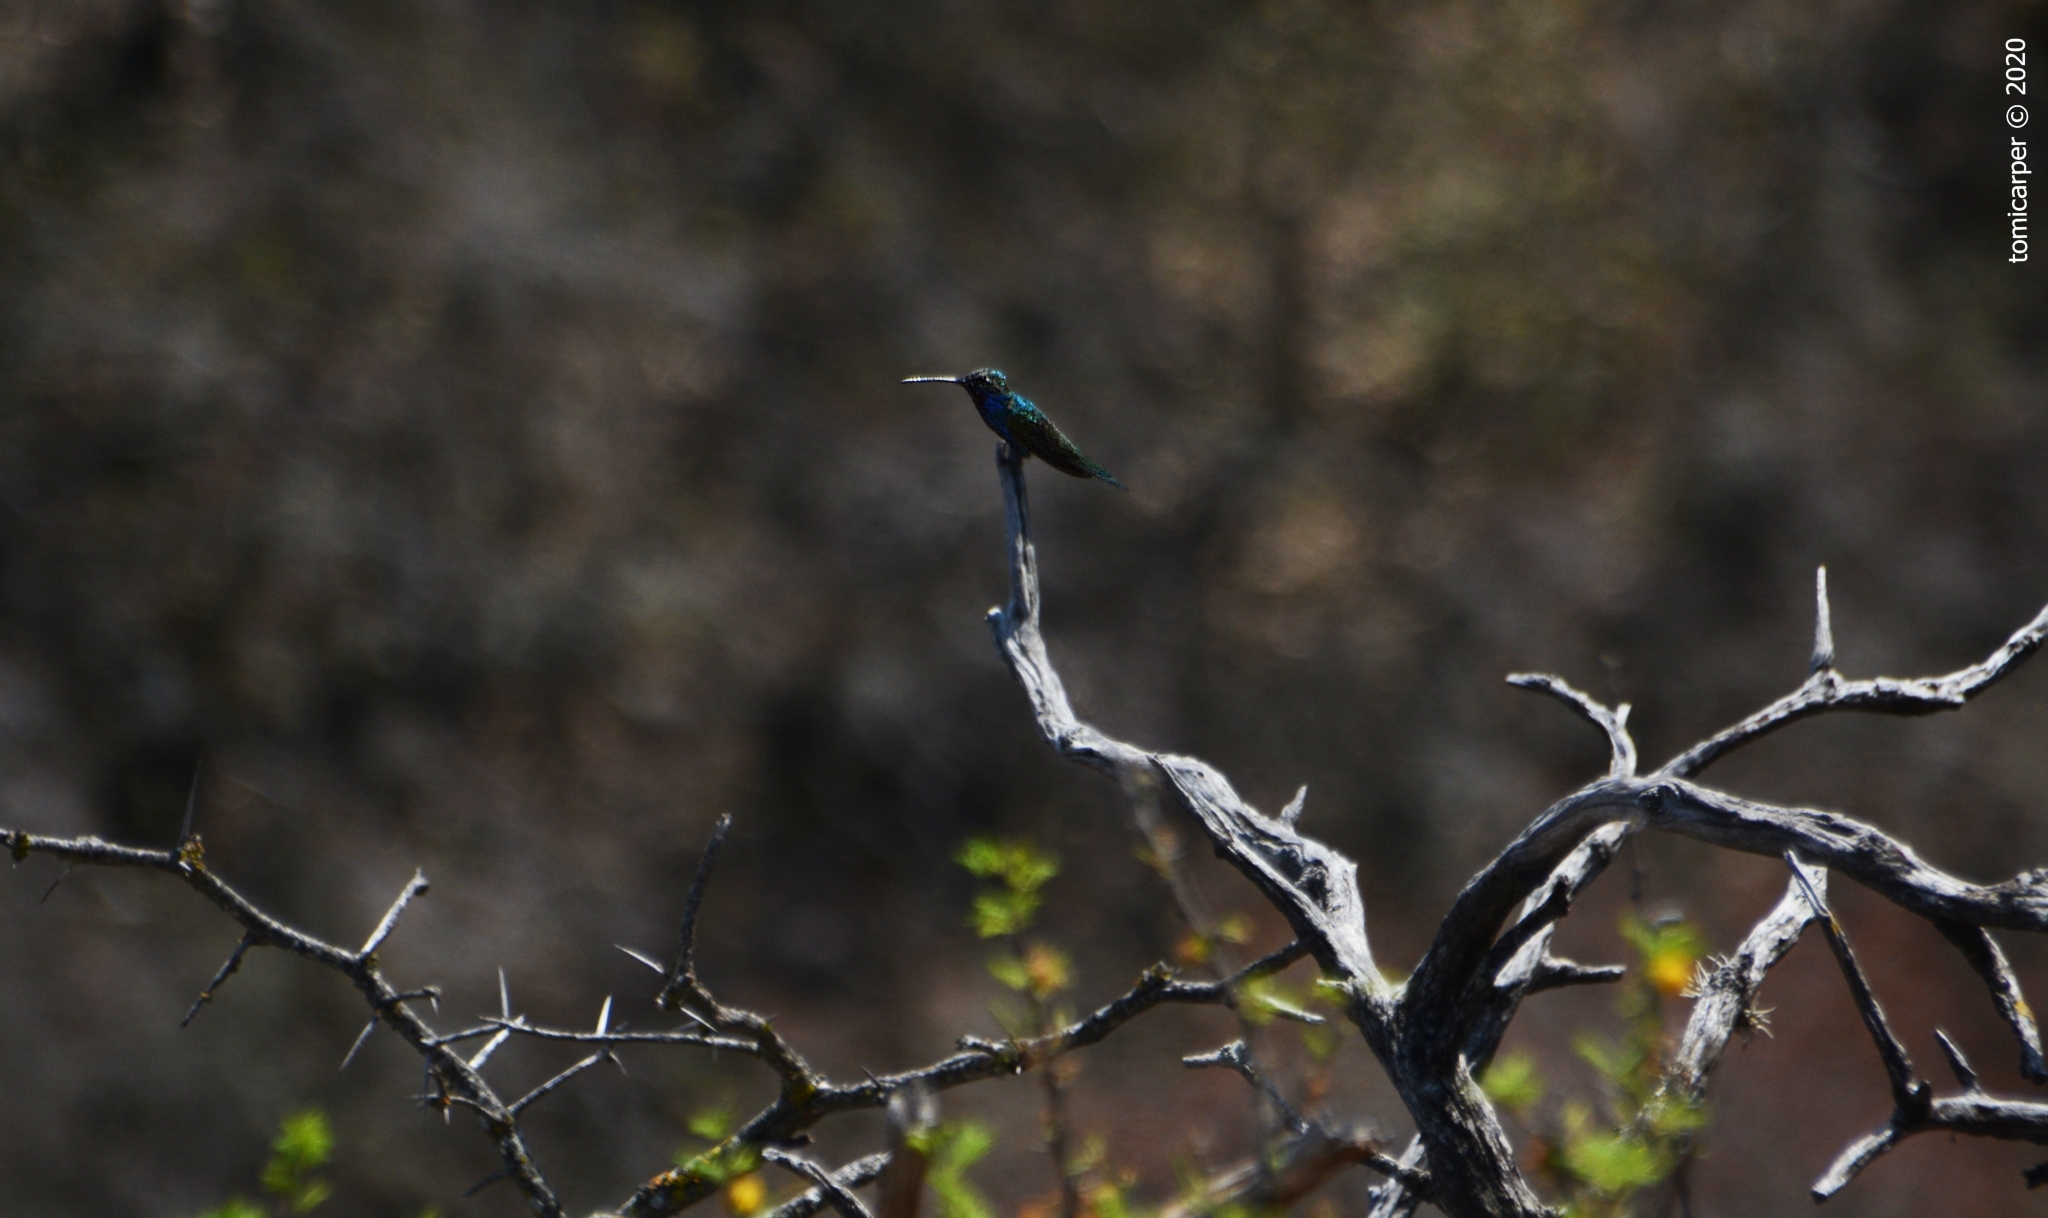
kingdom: Animalia
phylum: Chordata
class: Aves
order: Apodiformes
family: Trochilidae
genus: Heliomaster
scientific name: Heliomaster furcifer
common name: Blue-tufted starthroat
